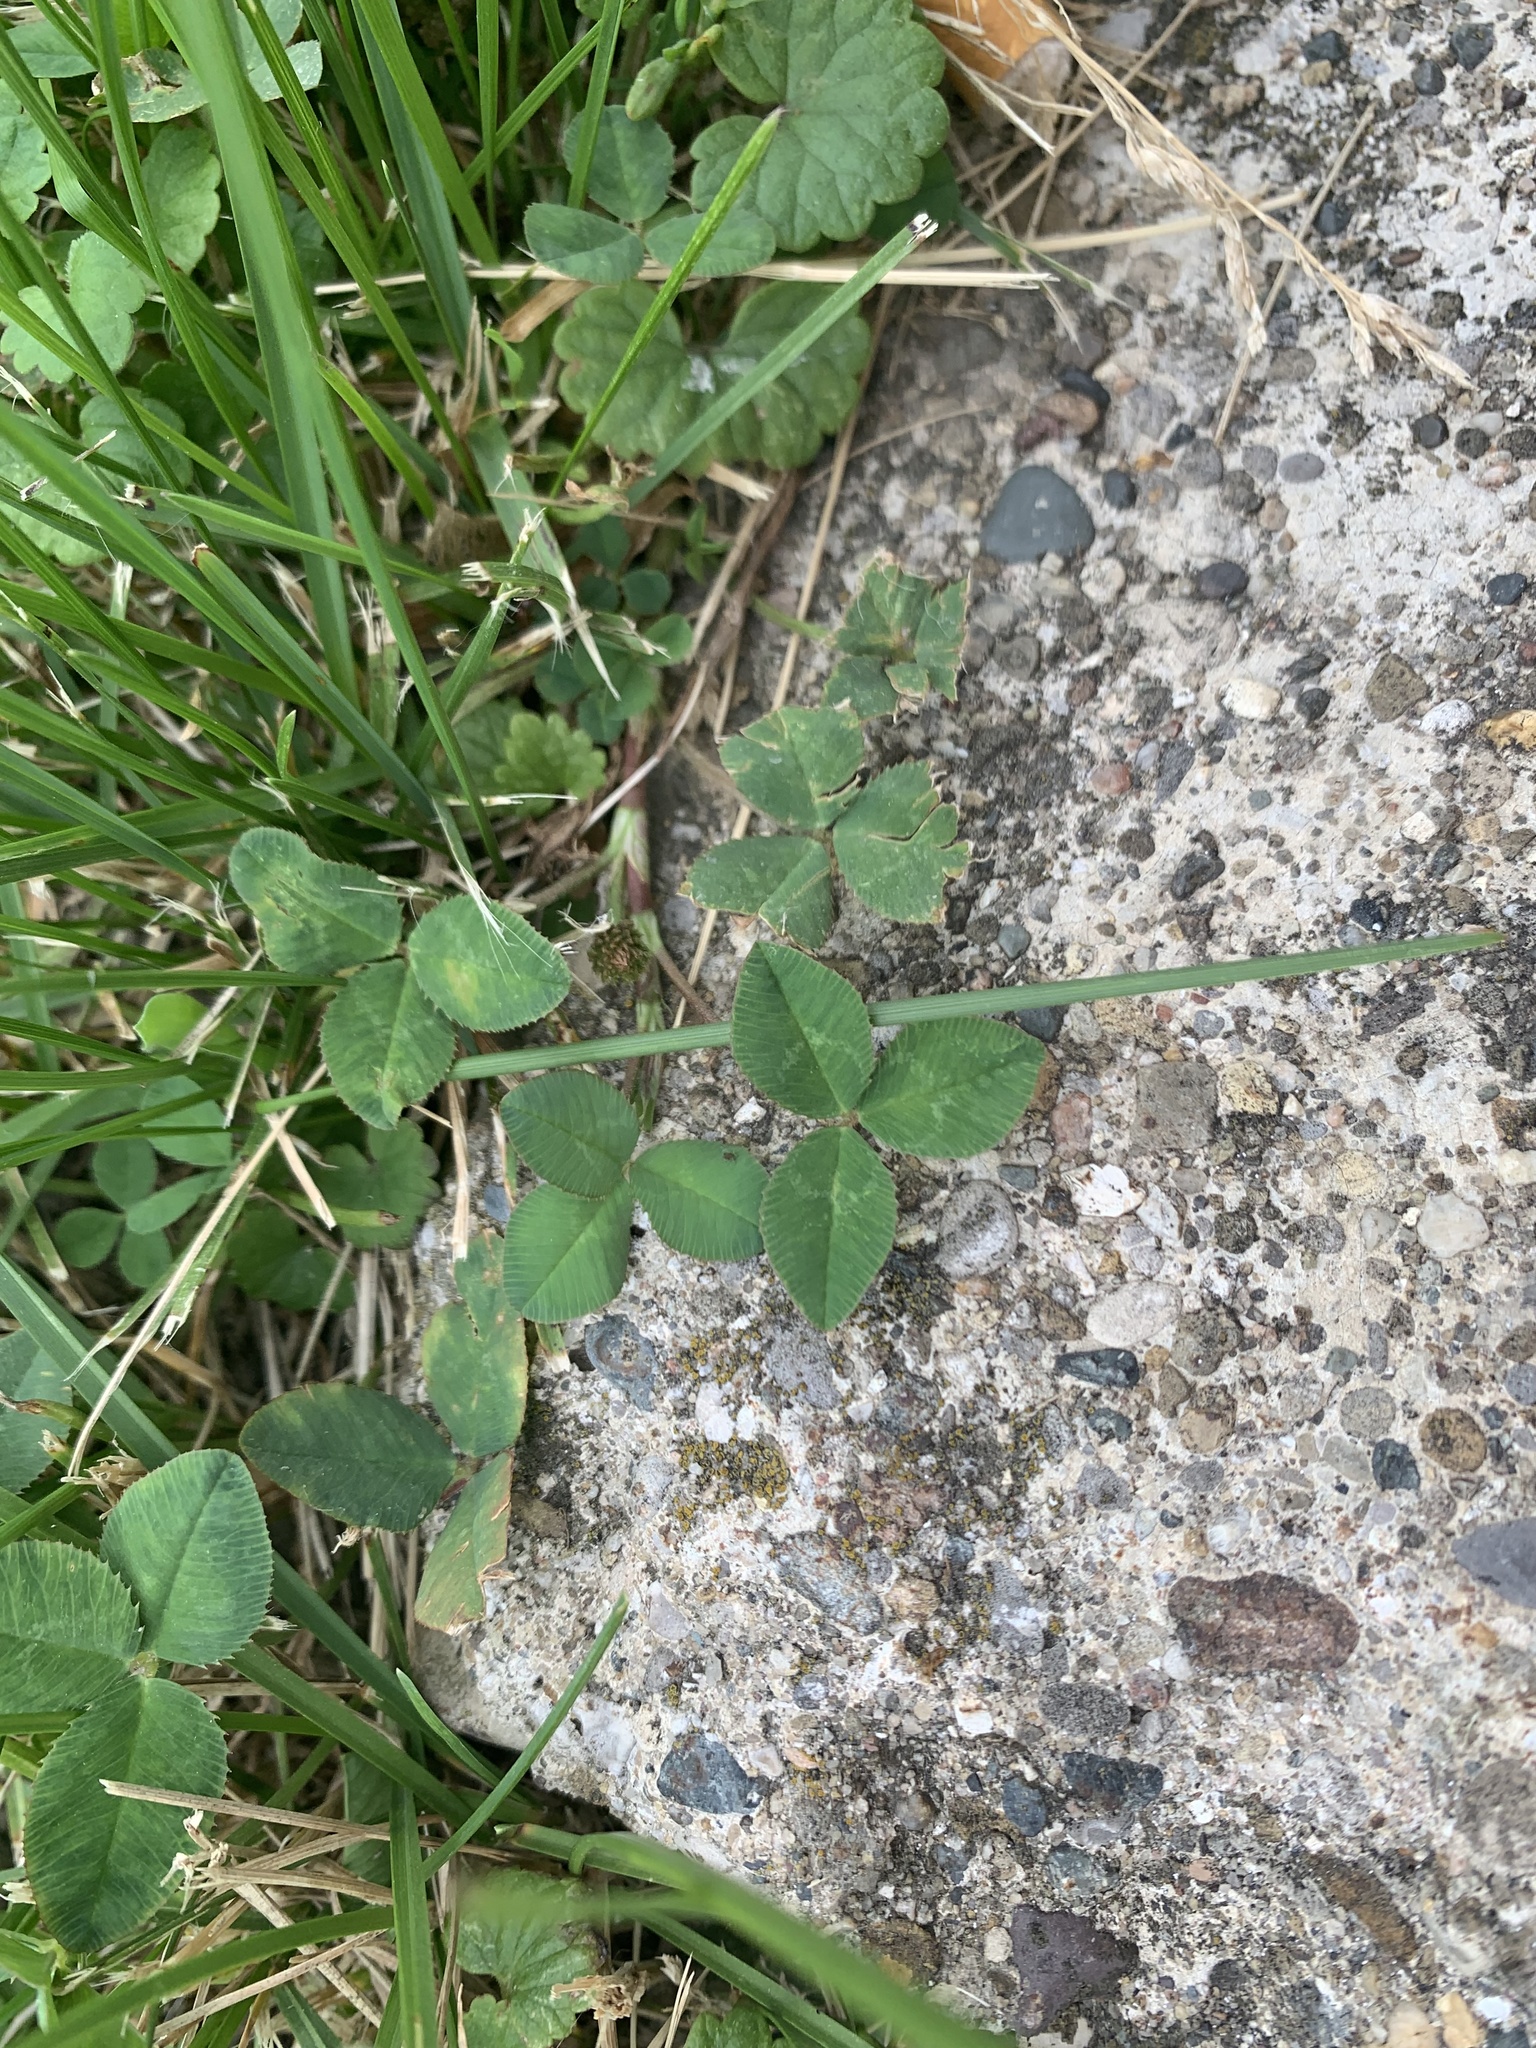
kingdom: Plantae
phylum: Tracheophyta
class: Magnoliopsida
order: Fabales
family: Fabaceae
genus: Trifolium
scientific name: Trifolium repens
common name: White clover
